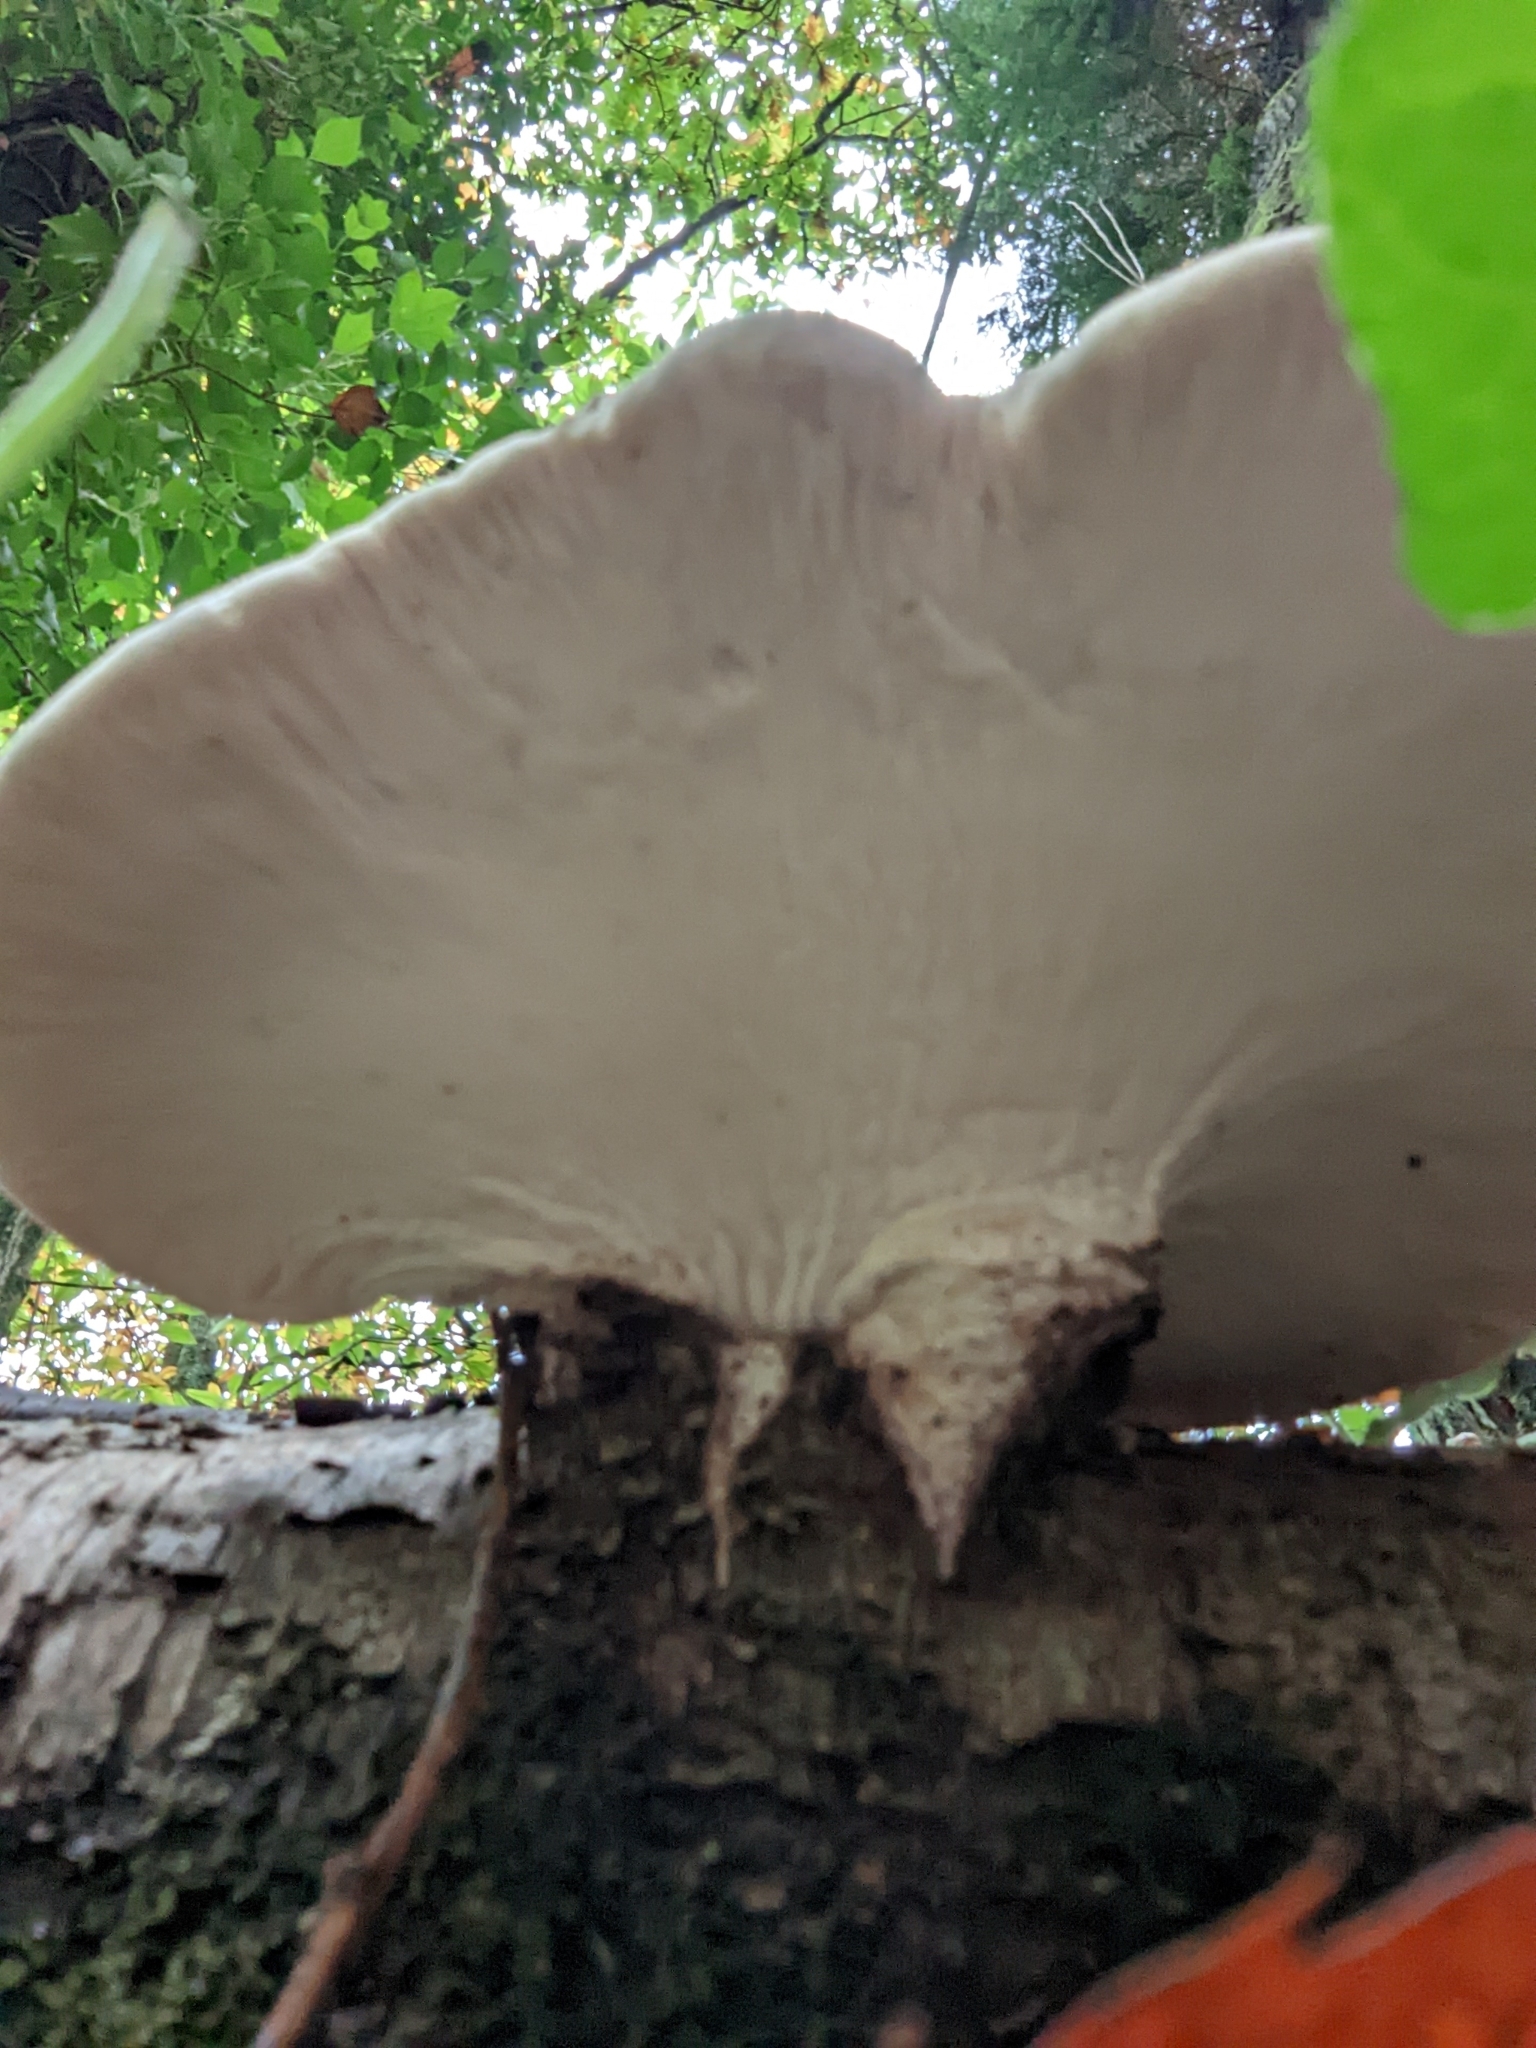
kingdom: Fungi
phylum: Basidiomycota
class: Agaricomycetes
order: Polyporales
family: Fomitopsidaceae
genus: Fomitopsis
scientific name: Fomitopsis betulina
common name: Birch polypore
